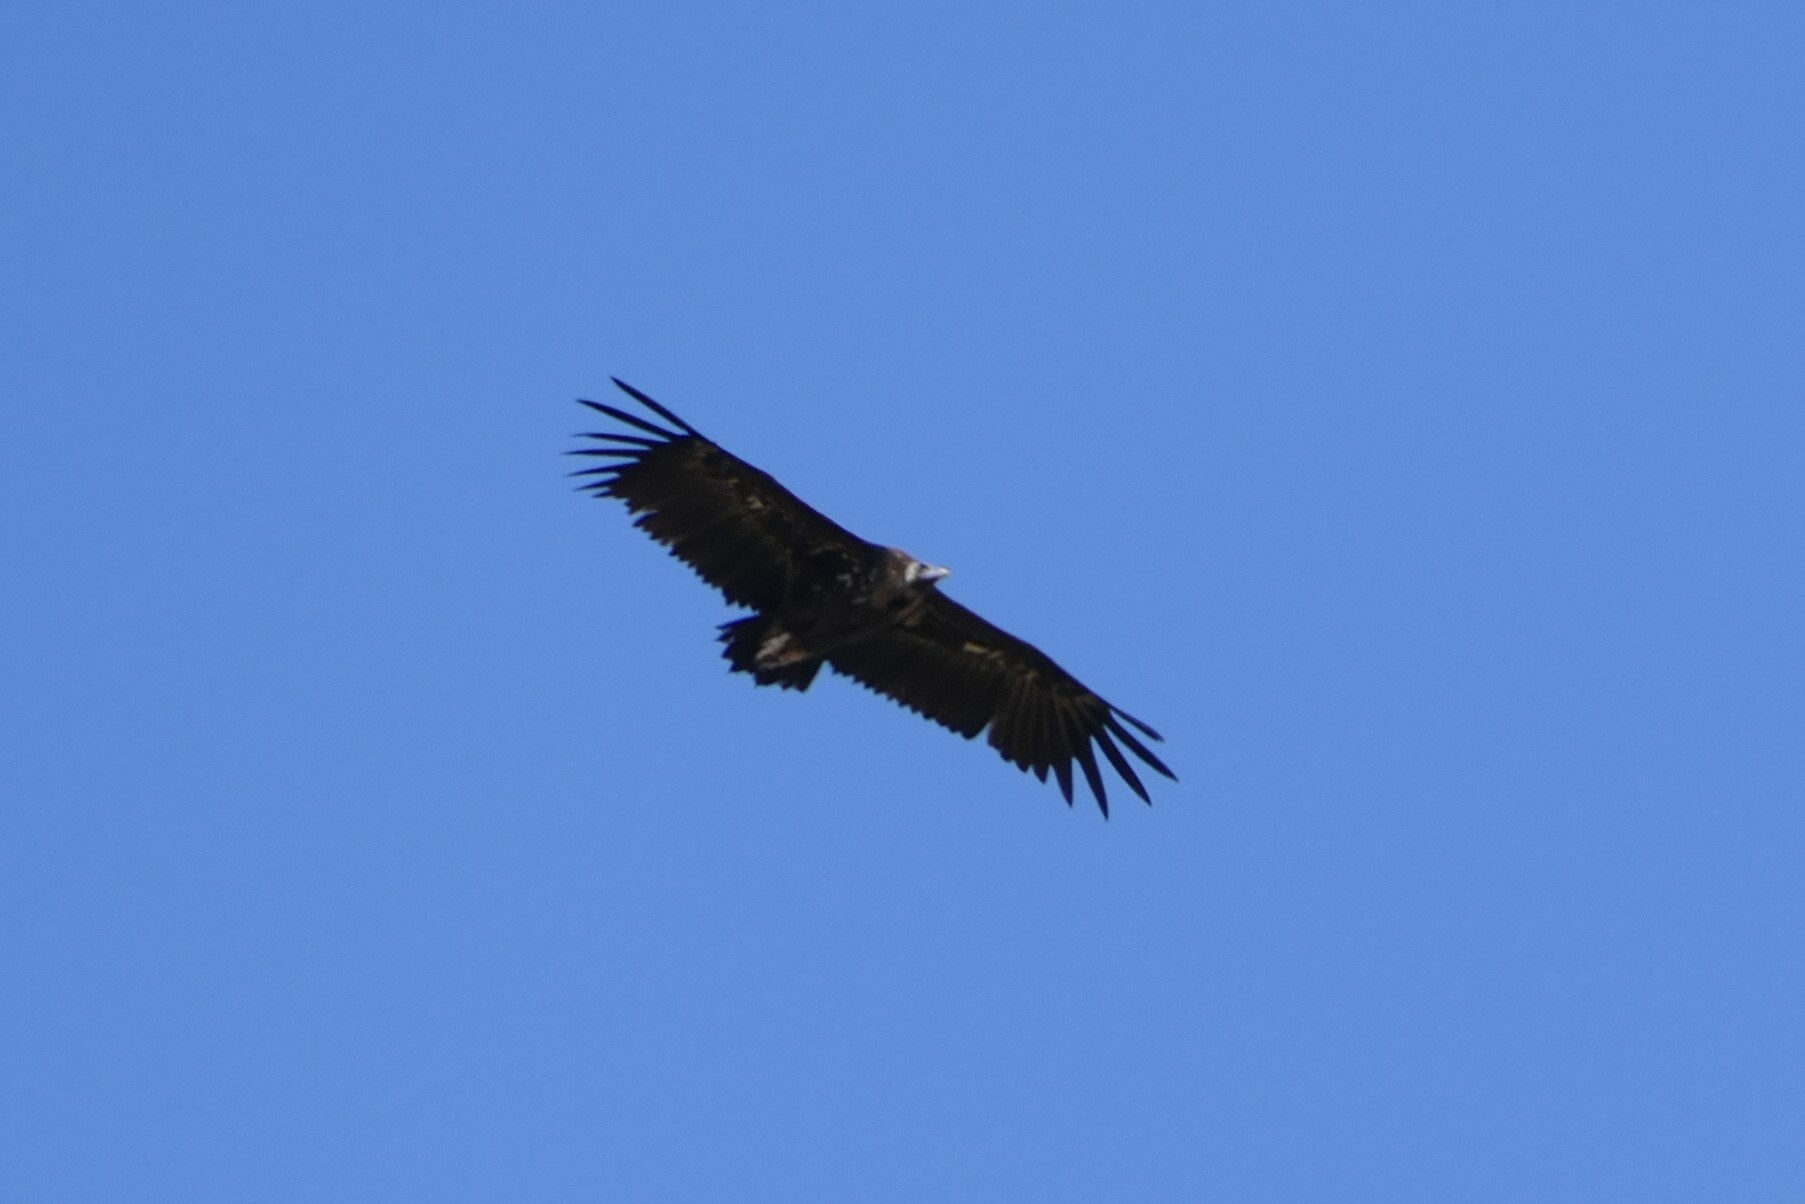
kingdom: Animalia
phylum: Chordata
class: Aves
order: Accipitriformes
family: Accipitridae
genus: Aegypius
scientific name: Aegypius monachus
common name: Cinereous vulture
